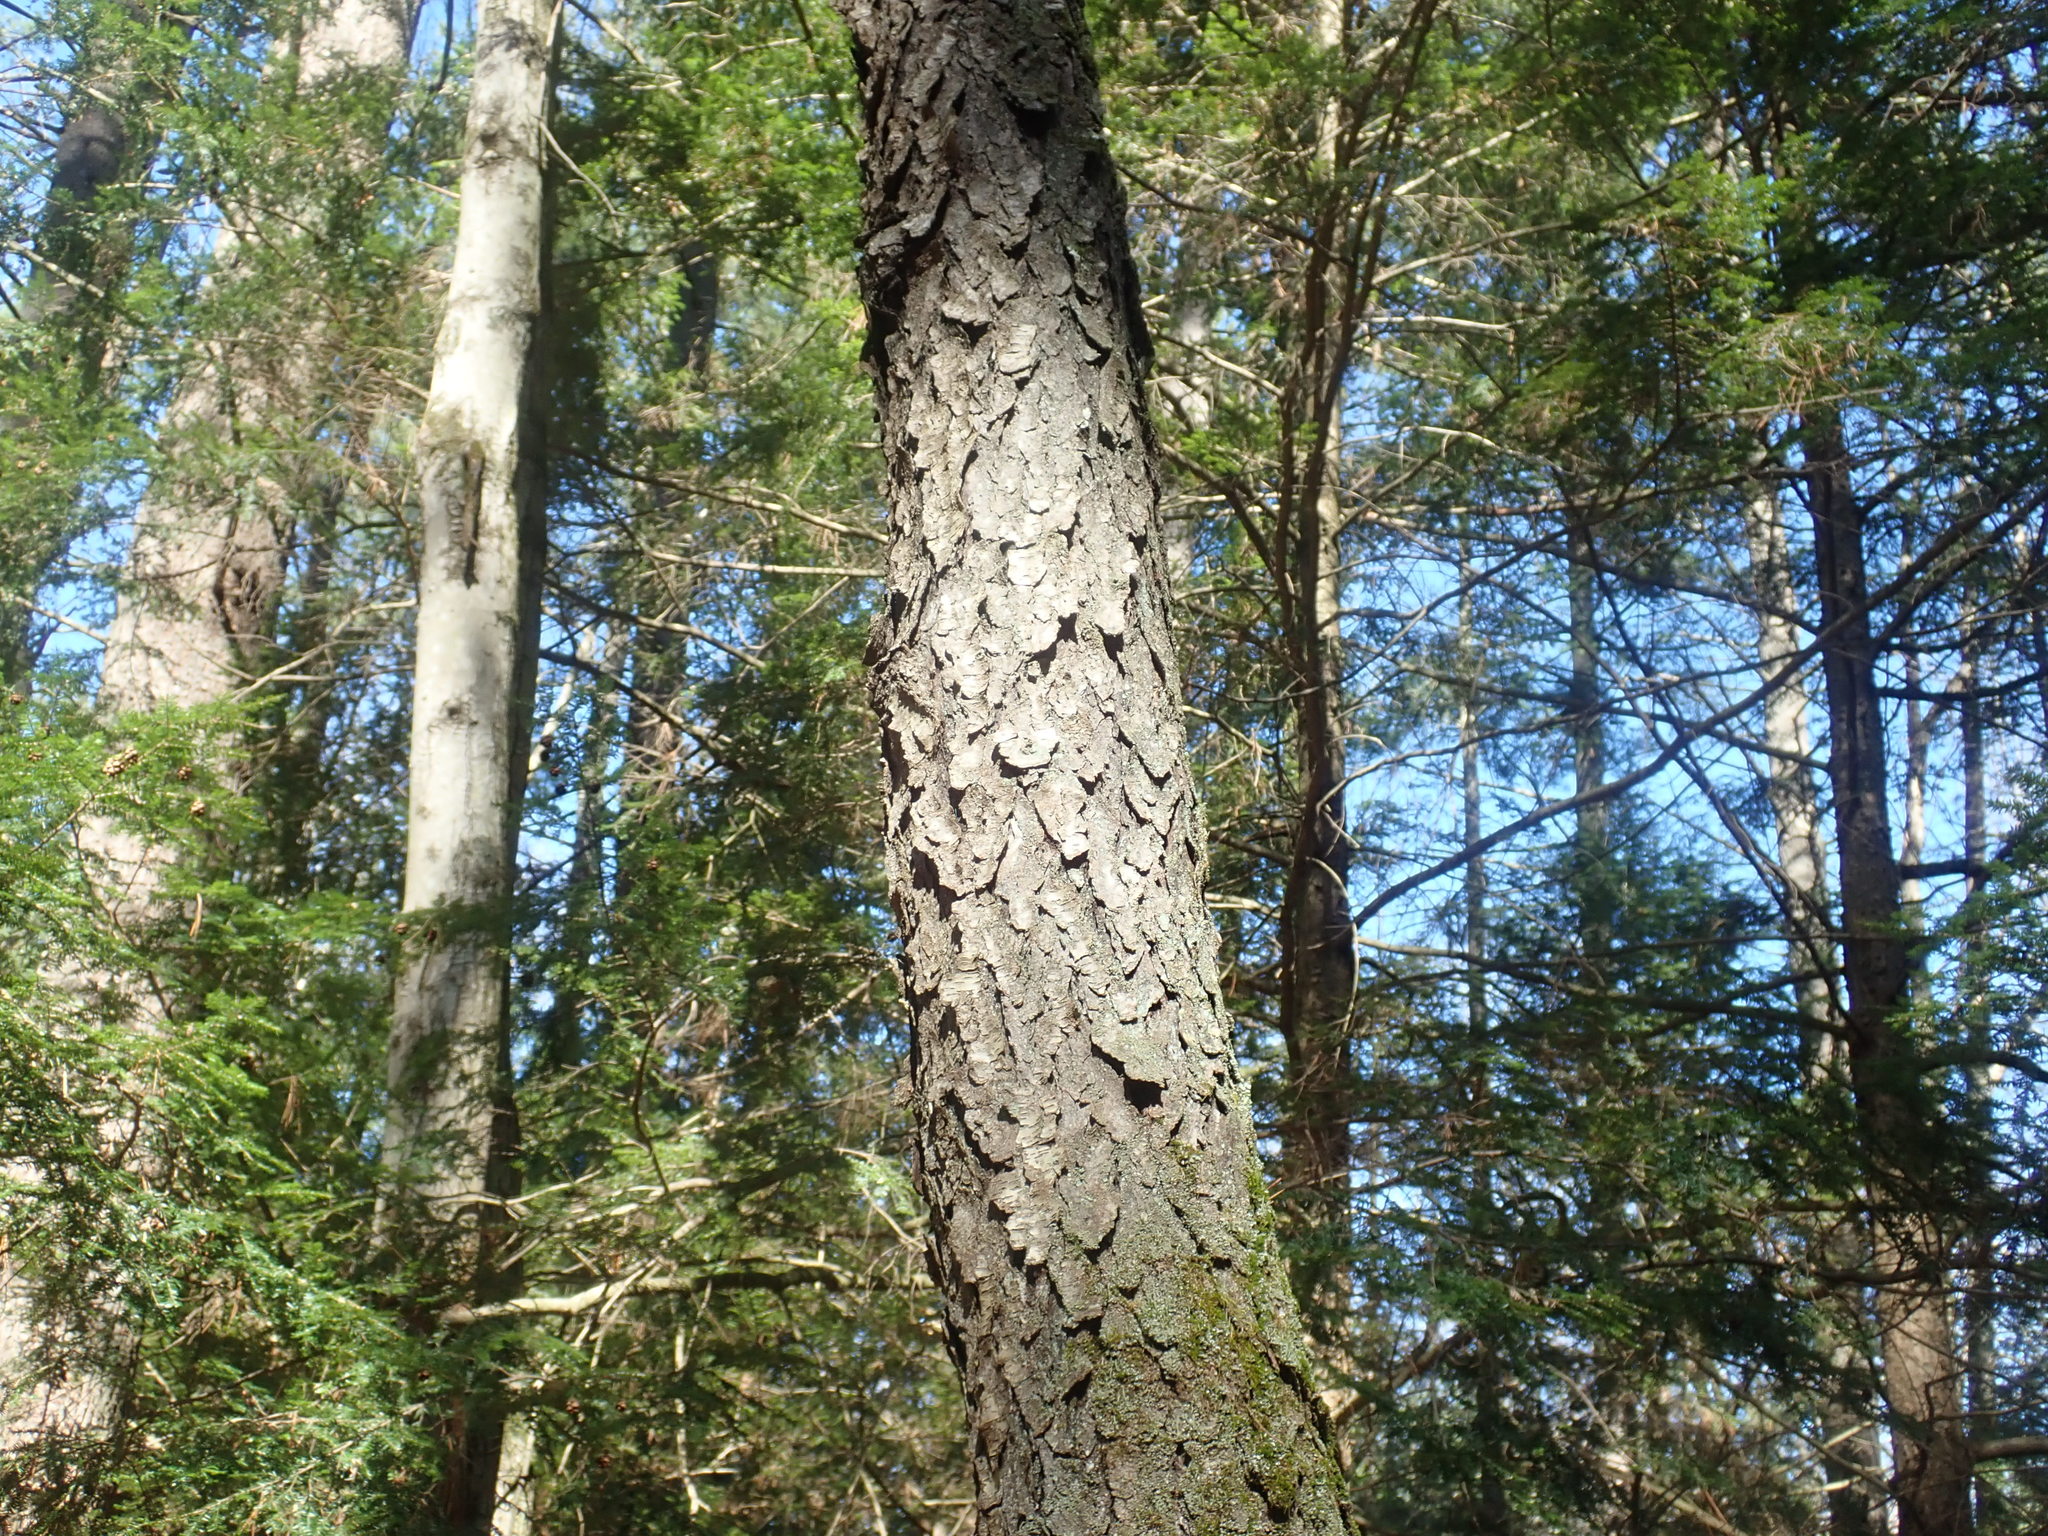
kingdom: Plantae
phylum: Tracheophyta
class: Magnoliopsida
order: Rosales
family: Rosaceae
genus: Prunus
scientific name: Prunus serotina
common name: Black cherry
